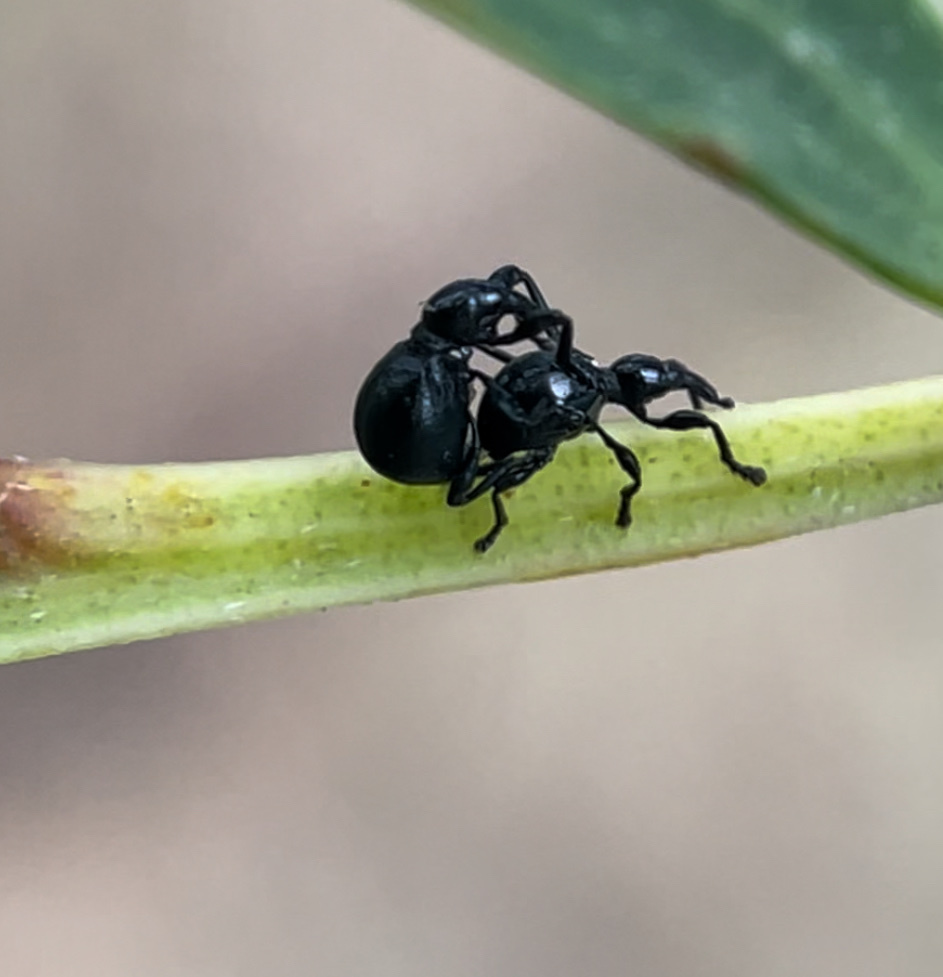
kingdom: Animalia
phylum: Arthropoda
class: Insecta
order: Coleoptera
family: Brentidae
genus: Rhynolaccus
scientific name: Rhynolaccus formicarius
